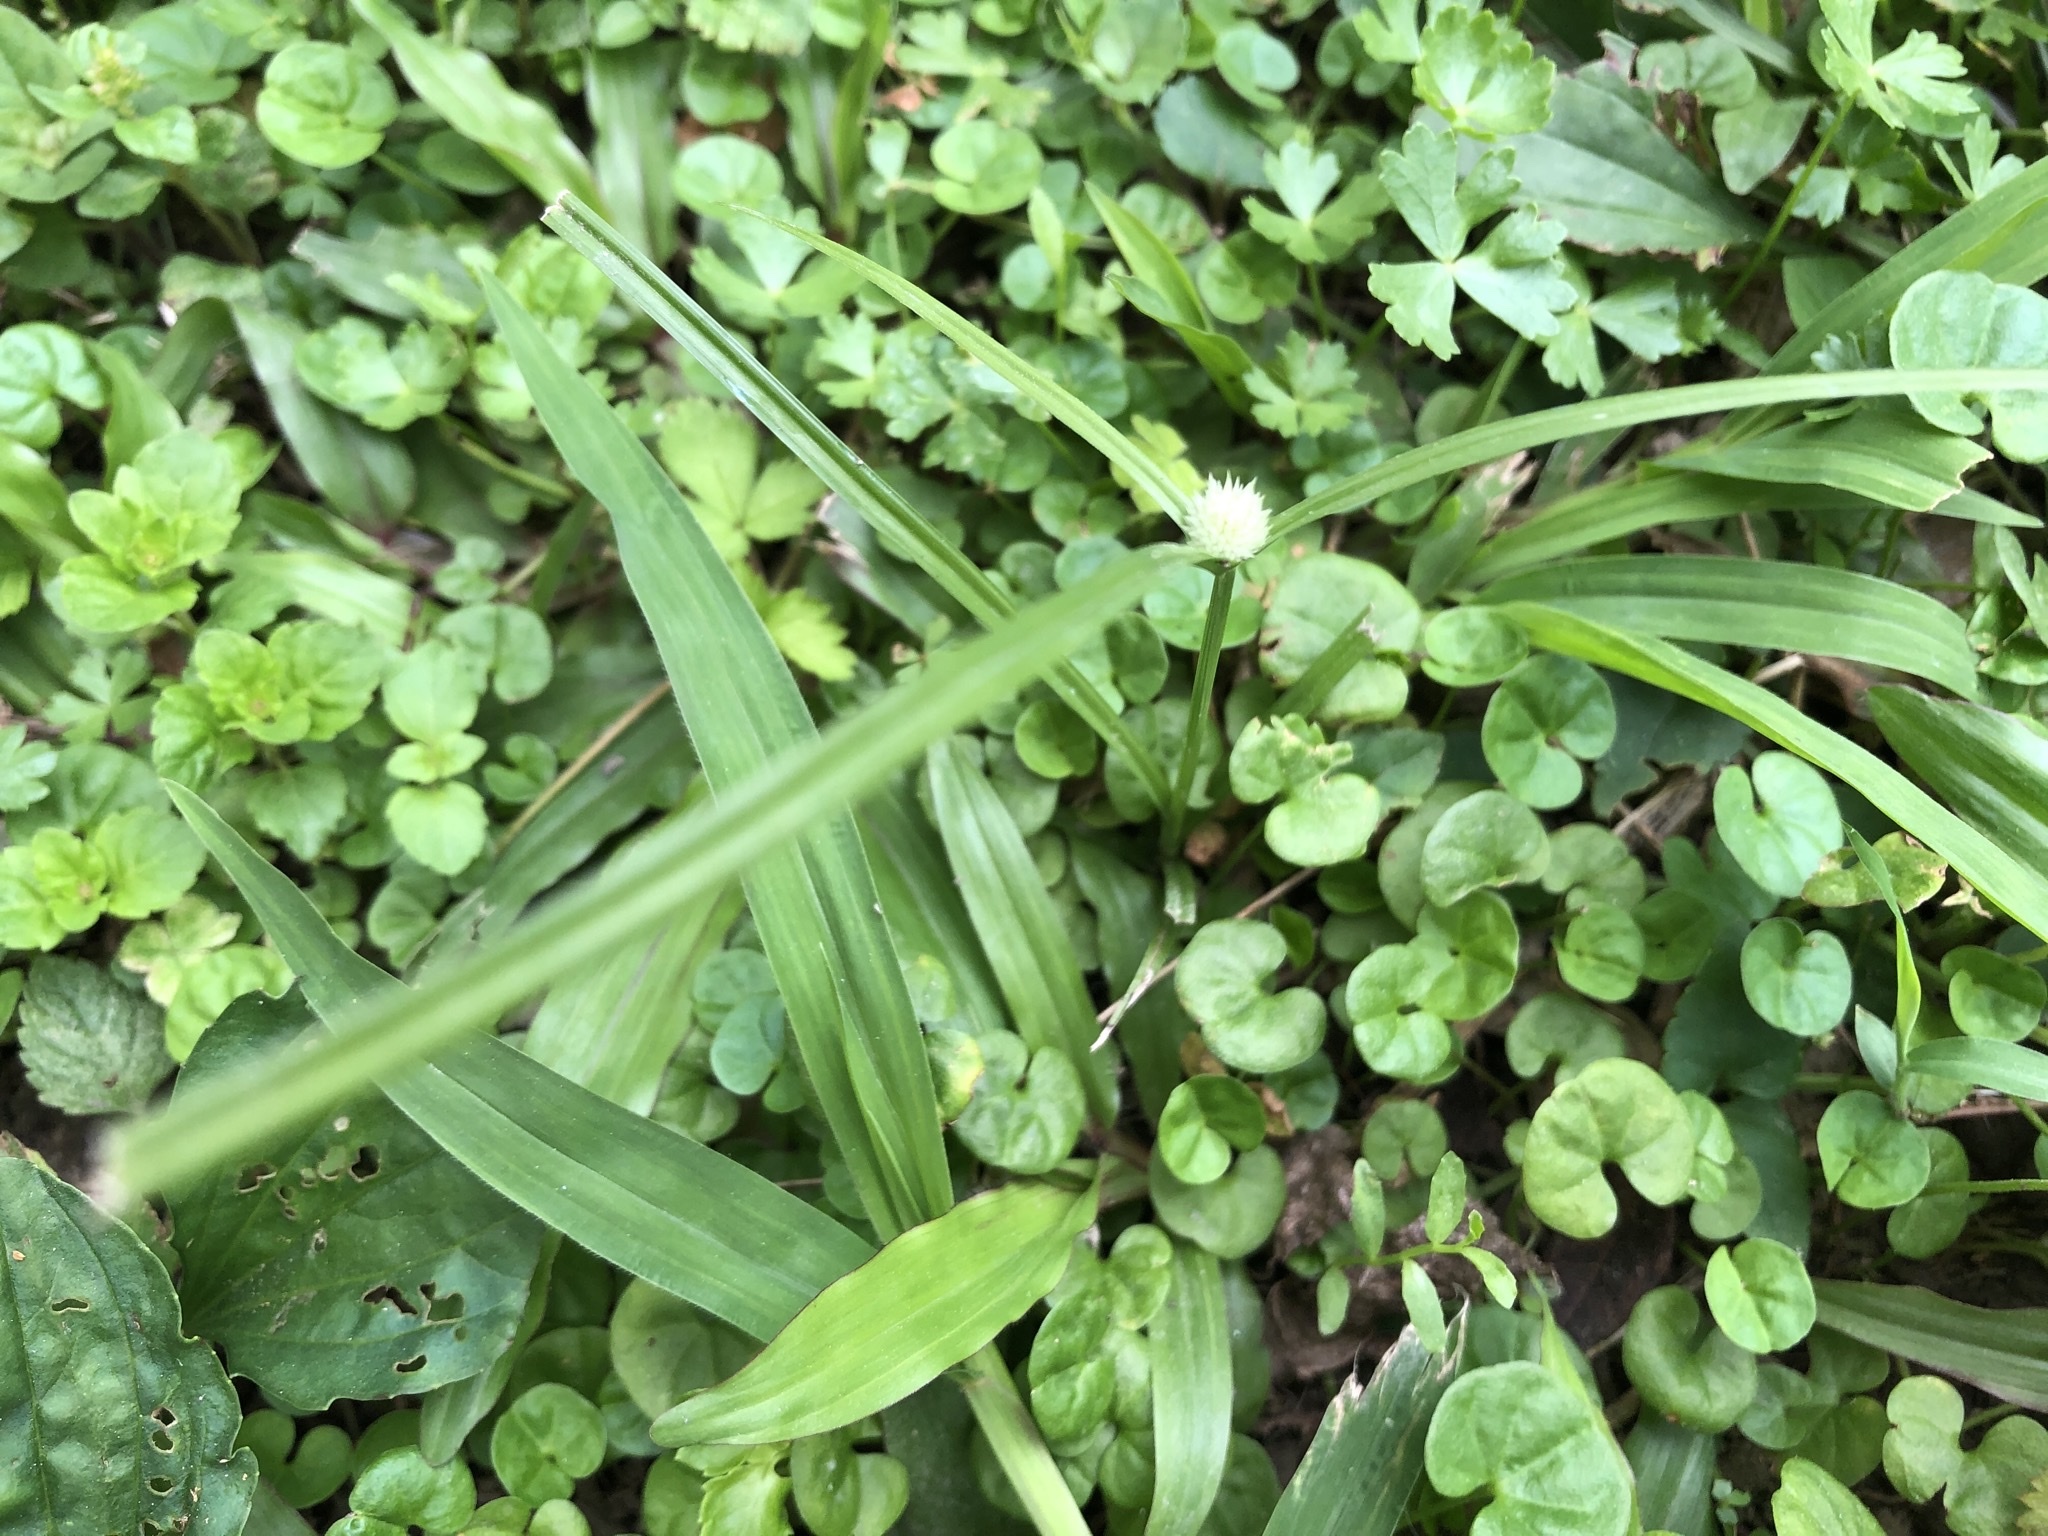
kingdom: Plantae
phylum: Tracheophyta
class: Liliopsida
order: Poales
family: Cyperaceae
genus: Cyperus
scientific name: Cyperus mindorensis
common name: Flatsedge
